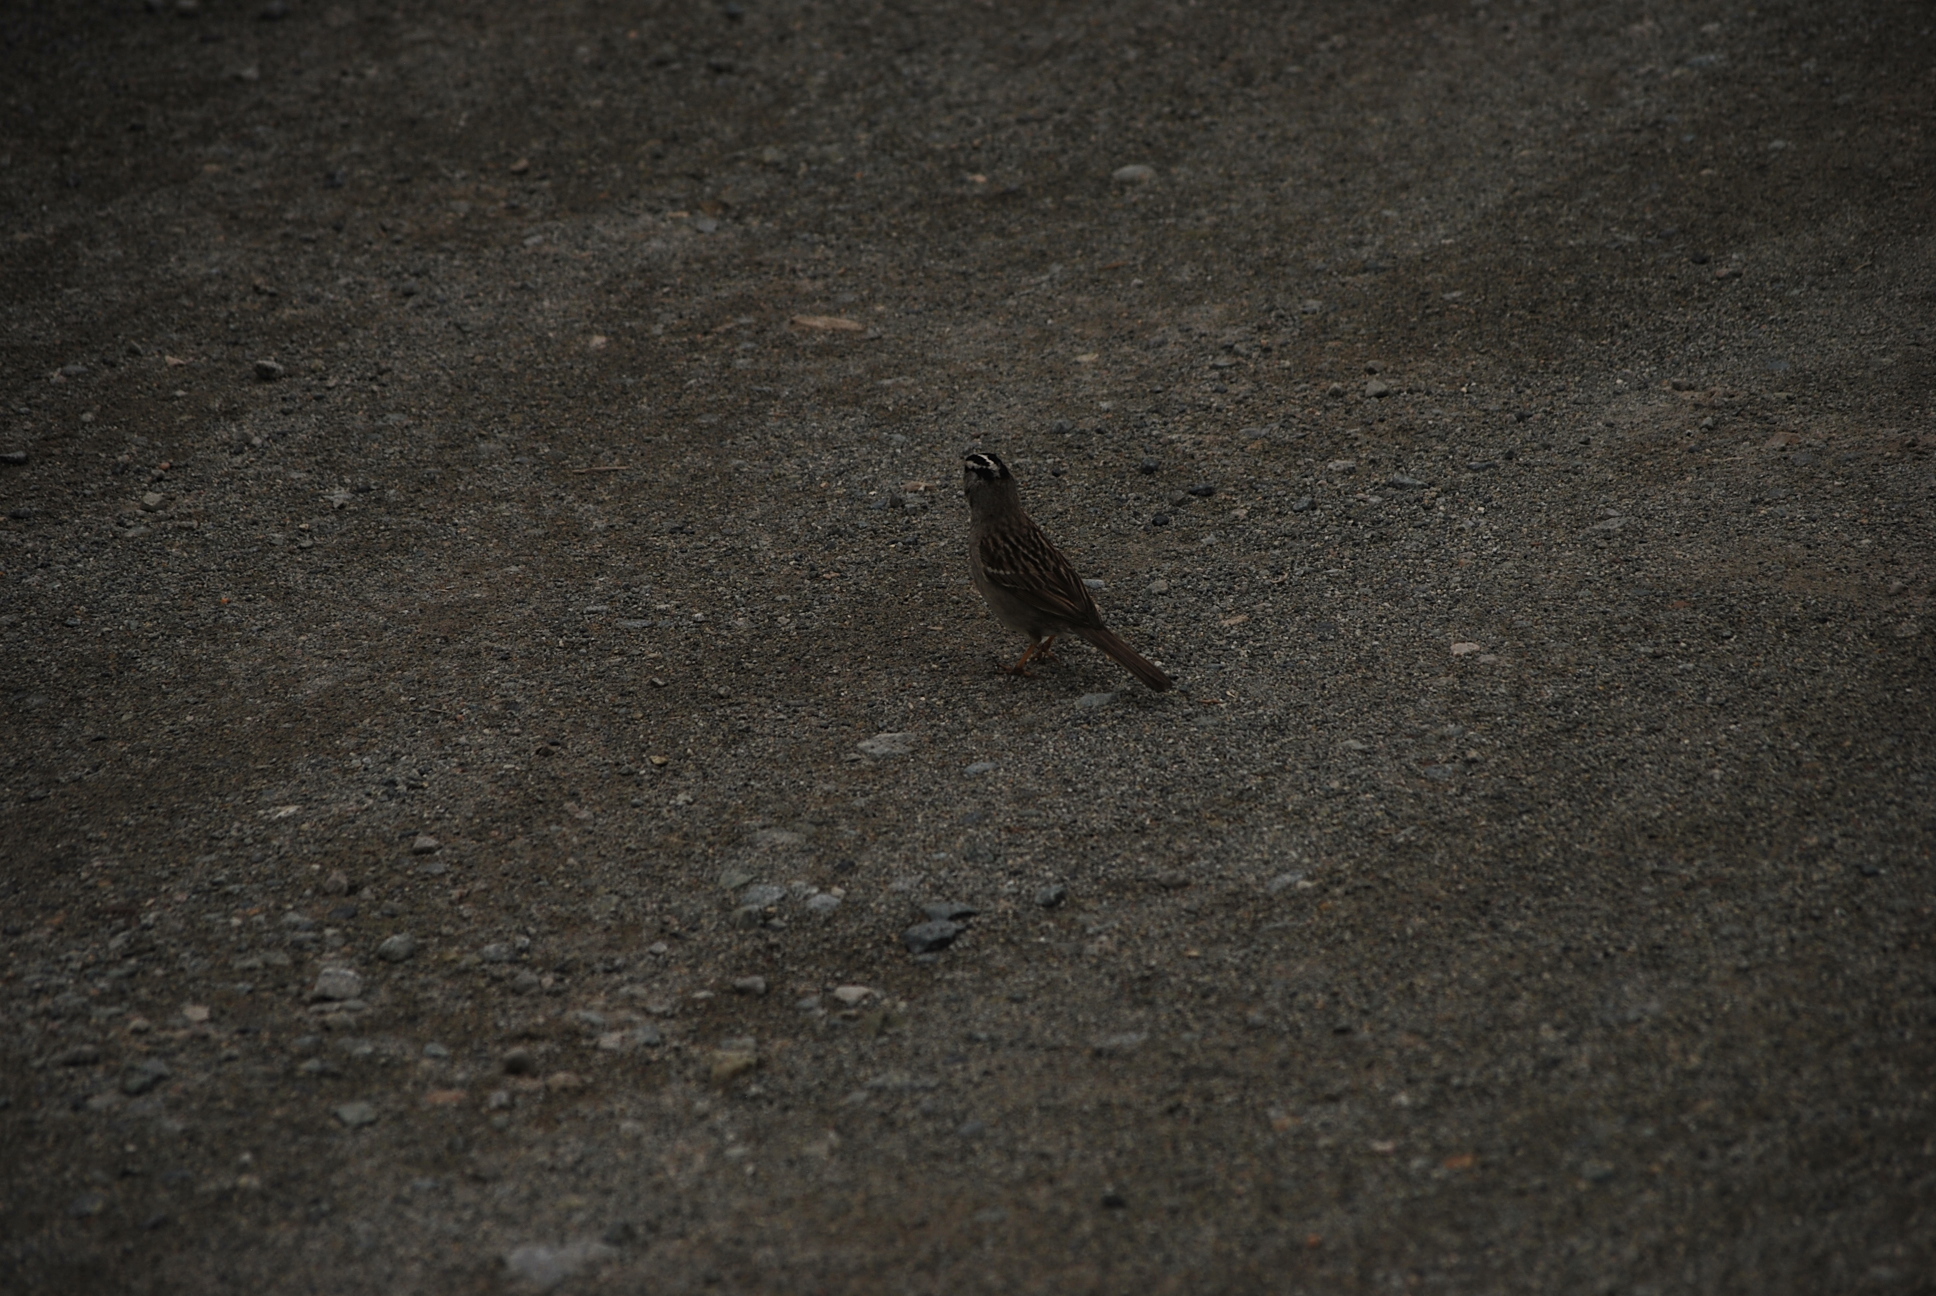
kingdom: Animalia
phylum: Chordata
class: Aves
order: Passeriformes
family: Passerellidae
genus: Zonotrichia
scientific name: Zonotrichia leucophrys
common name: White-crowned sparrow
